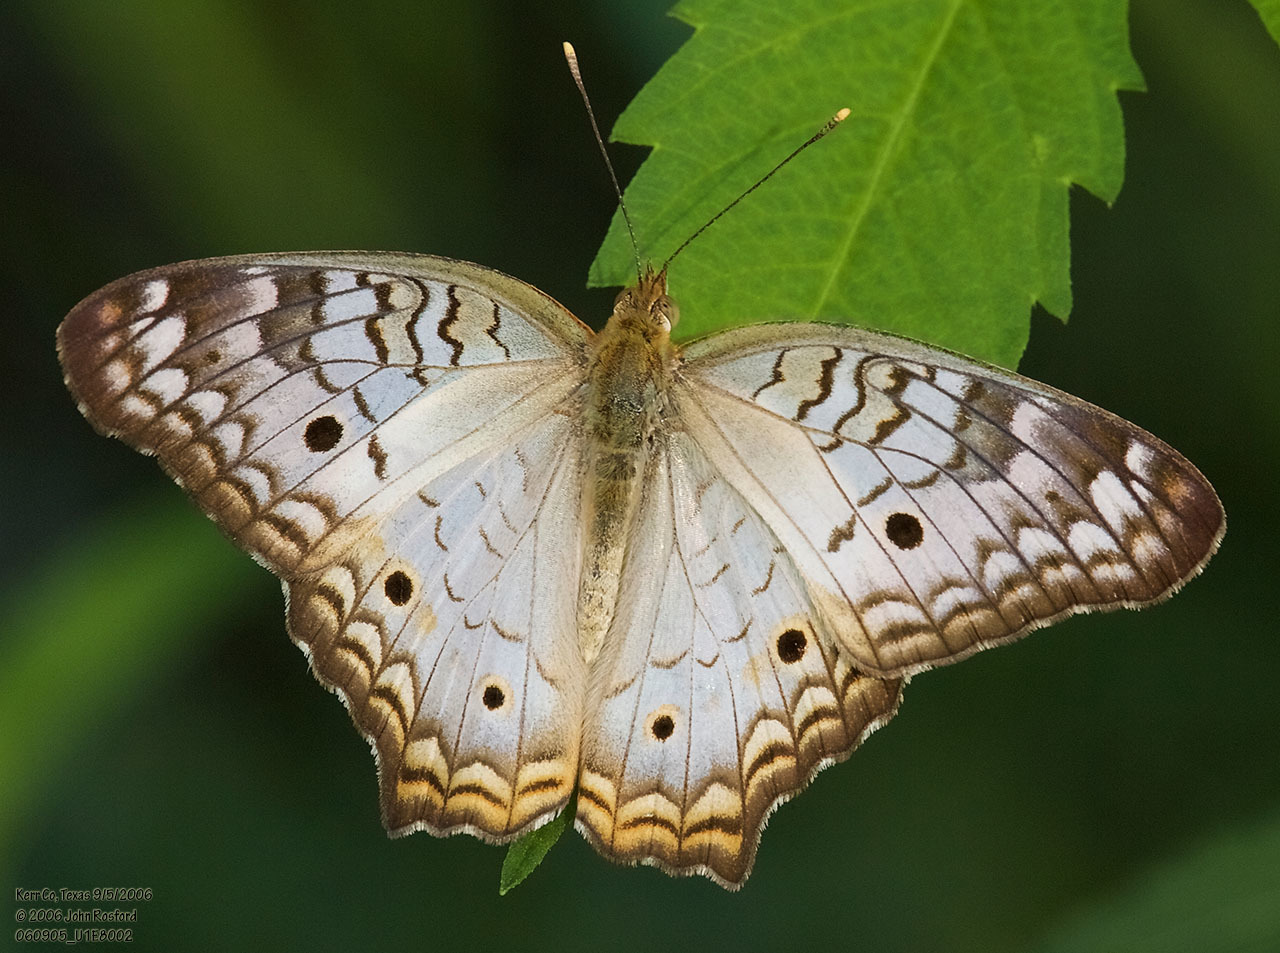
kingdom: Animalia
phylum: Arthropoda
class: Insecta
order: Lepidoptera
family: Nymphalidae
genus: Anartia
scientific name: Anartia jatrophae
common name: White peacock
